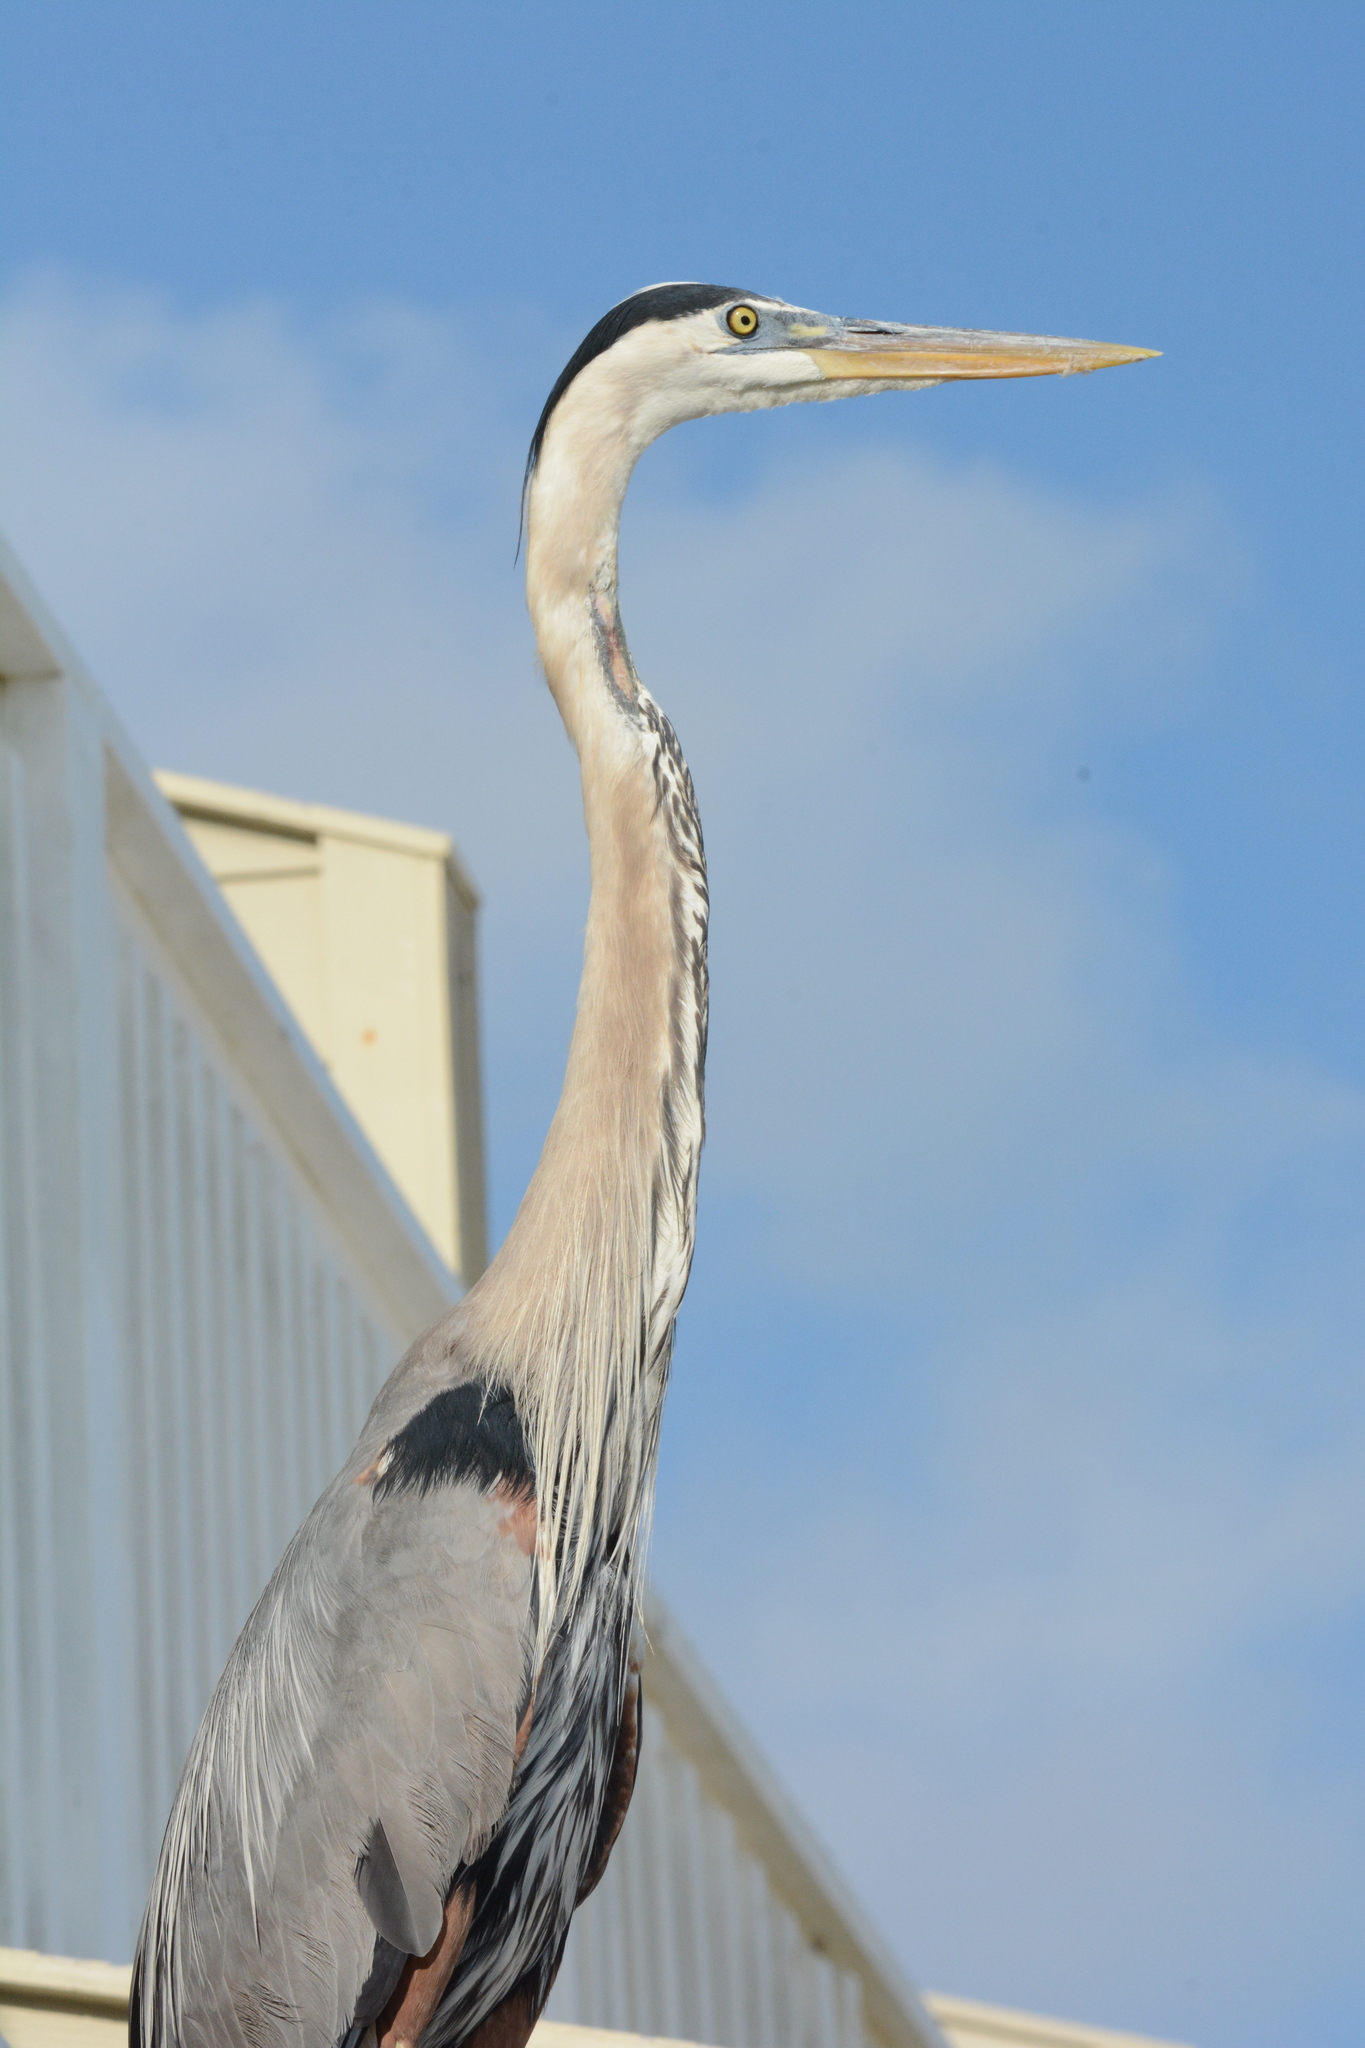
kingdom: Animalia
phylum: Chordata
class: Aves
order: Pelecaniformes
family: Ardeidae
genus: Ardea
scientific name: Ardea herodias
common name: Great blue heron
